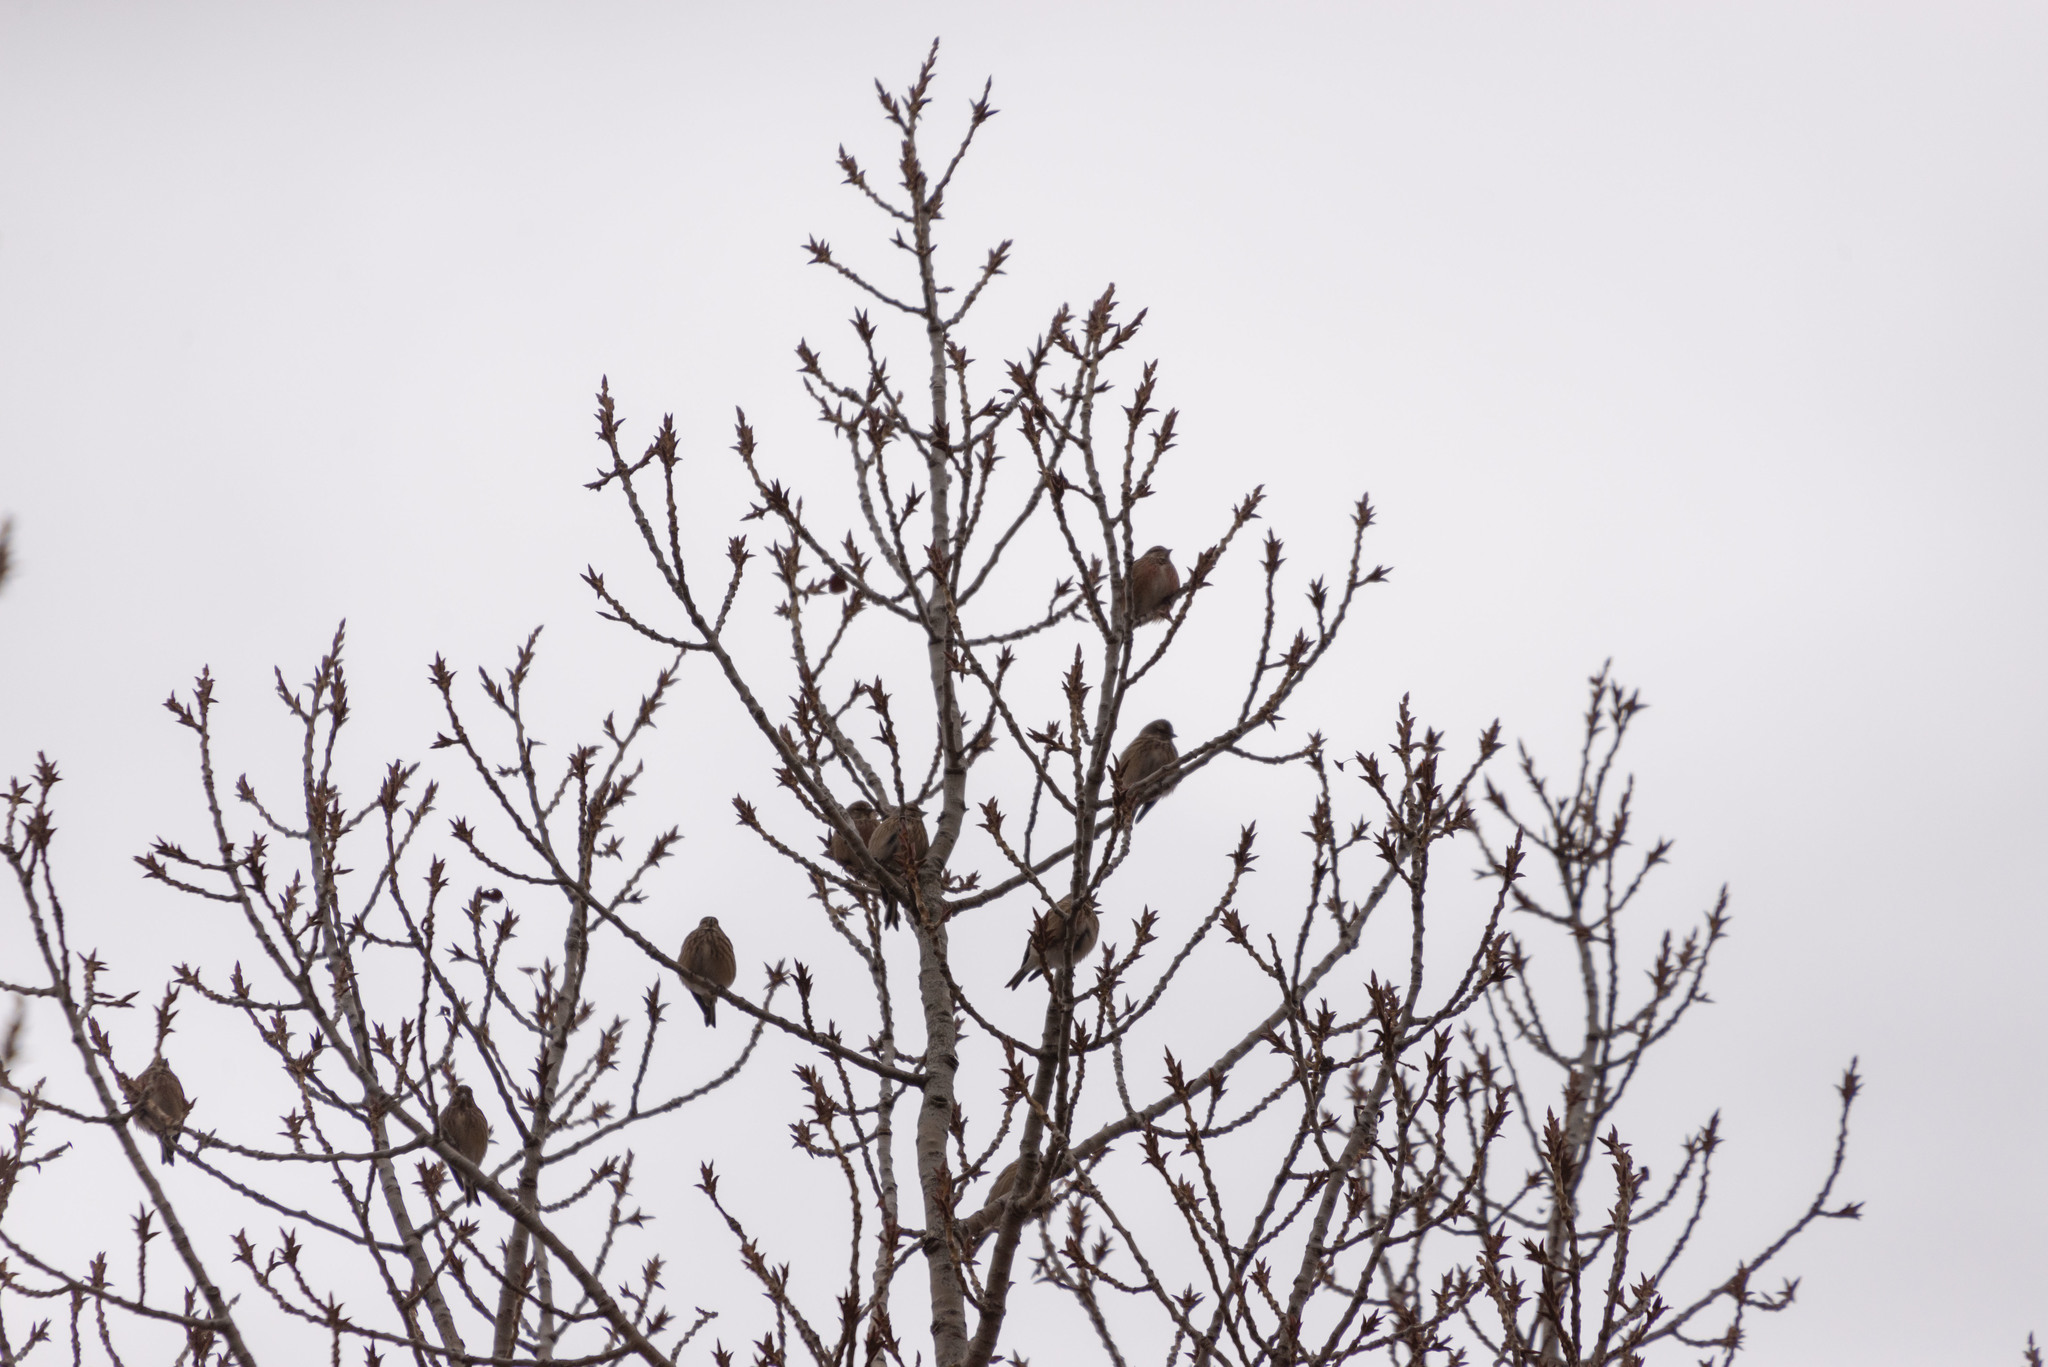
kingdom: Animalia
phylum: Chordata
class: Aves
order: Passeriformes
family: Fringillidae
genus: Linaria
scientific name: Linaria cannabina
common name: Common linnet
